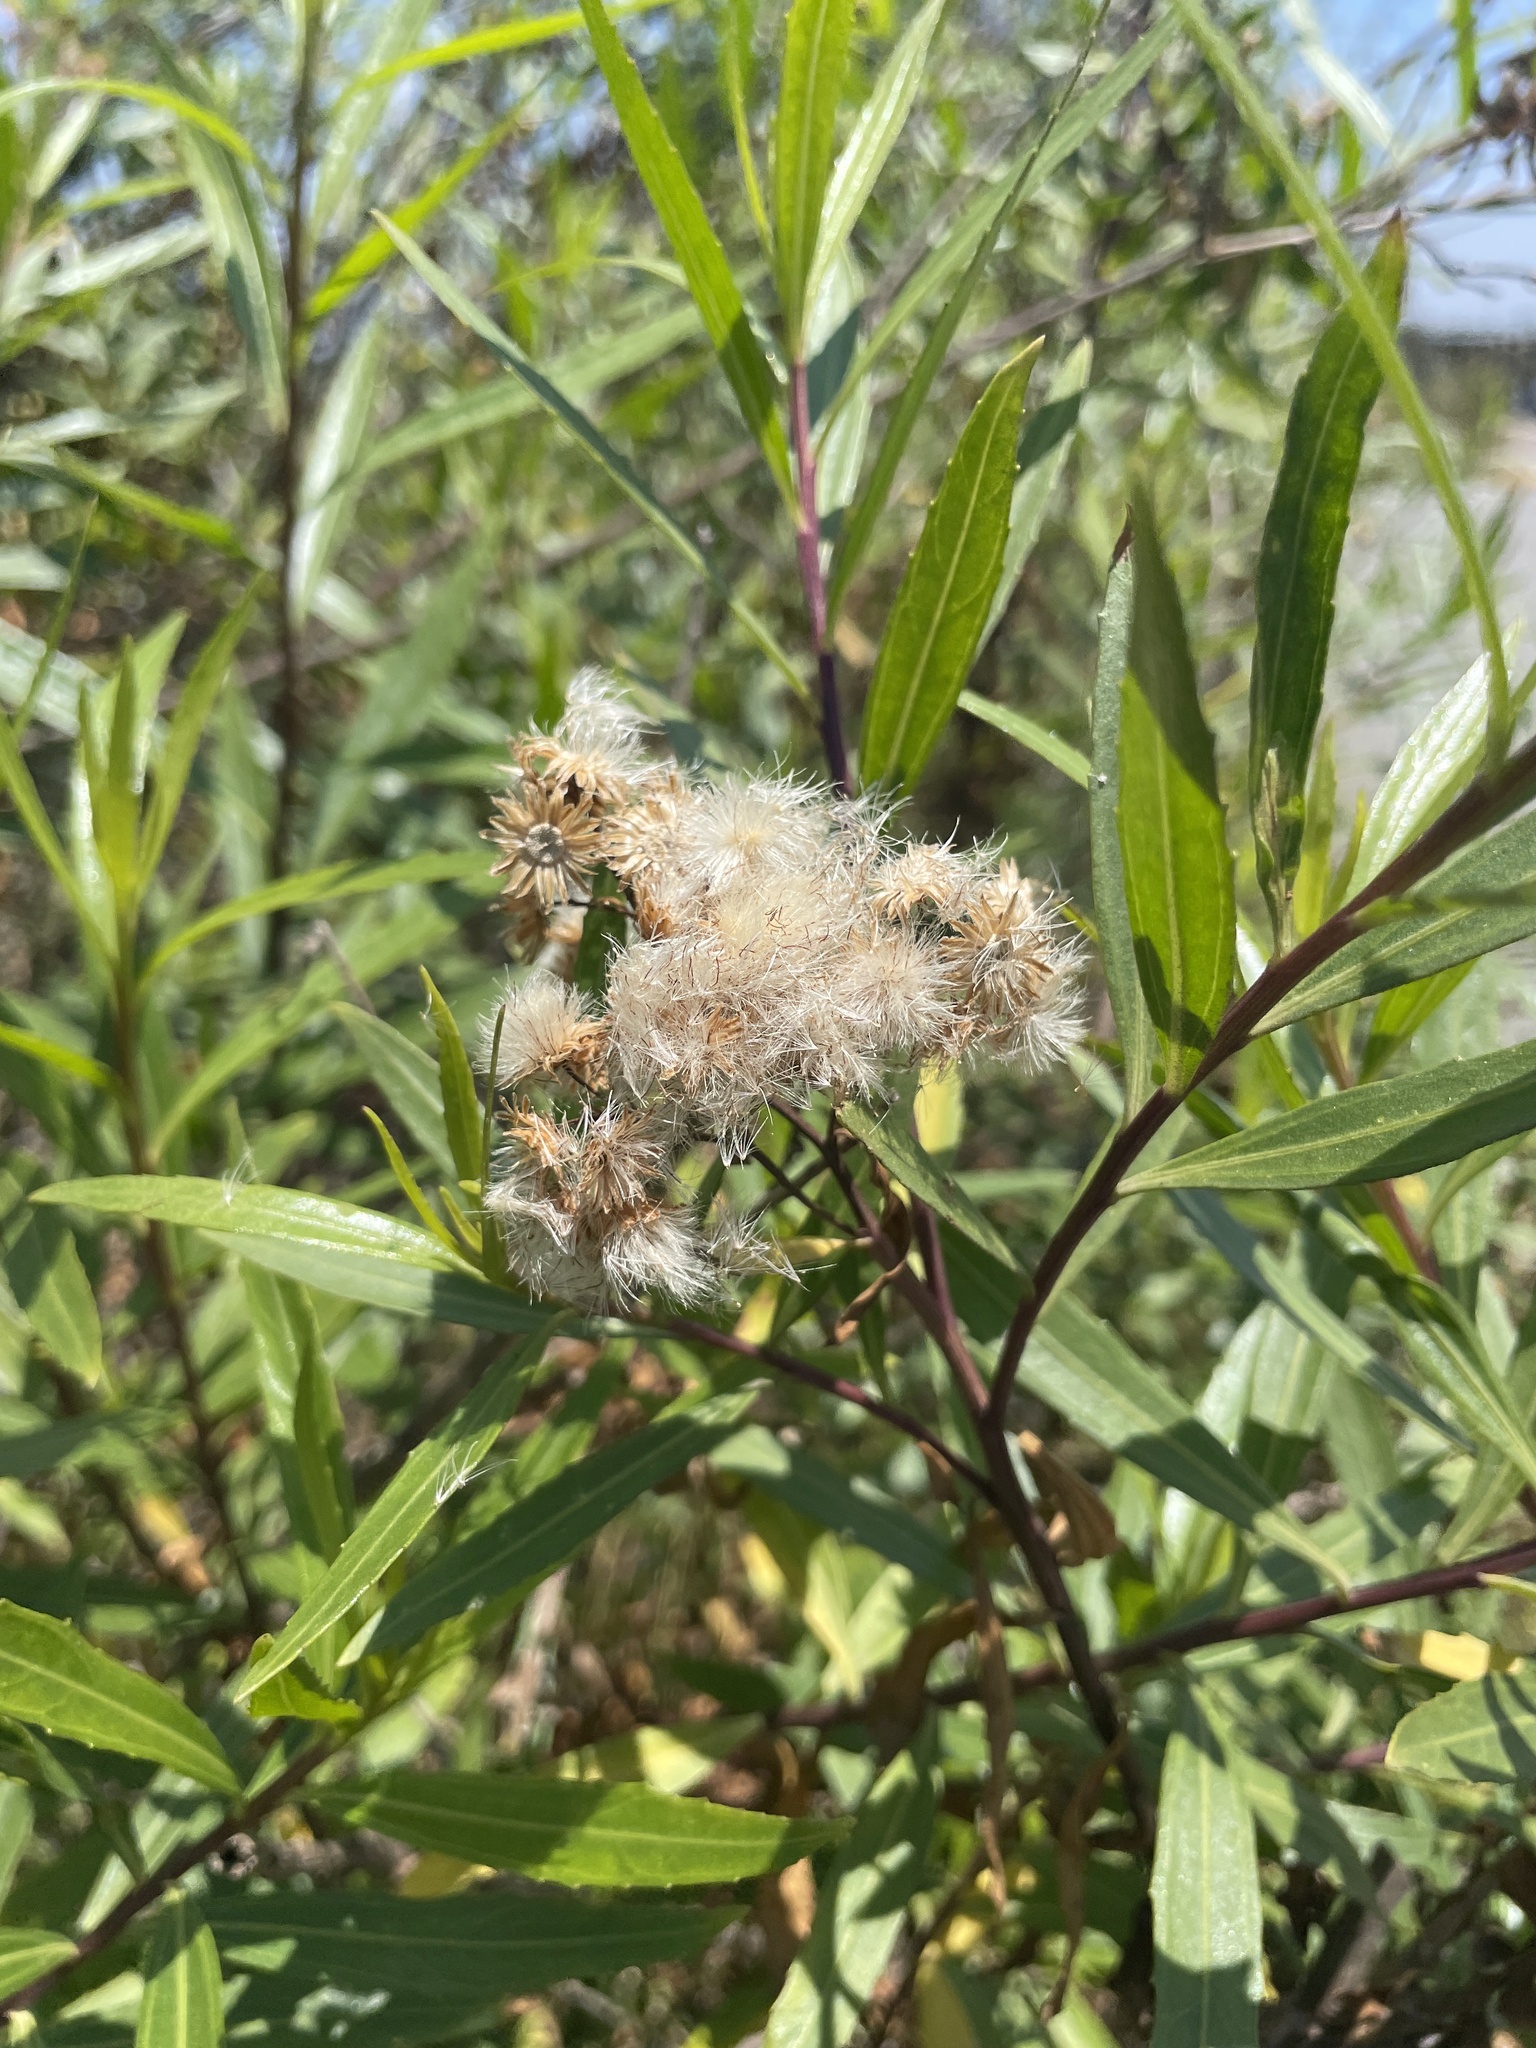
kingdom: Plantae
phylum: Tracheophyta
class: Magnoliopsida
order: Asterales
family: Asteraceae
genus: Baccharis
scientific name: Baccharis salicifolia
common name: Sticky baccharis
